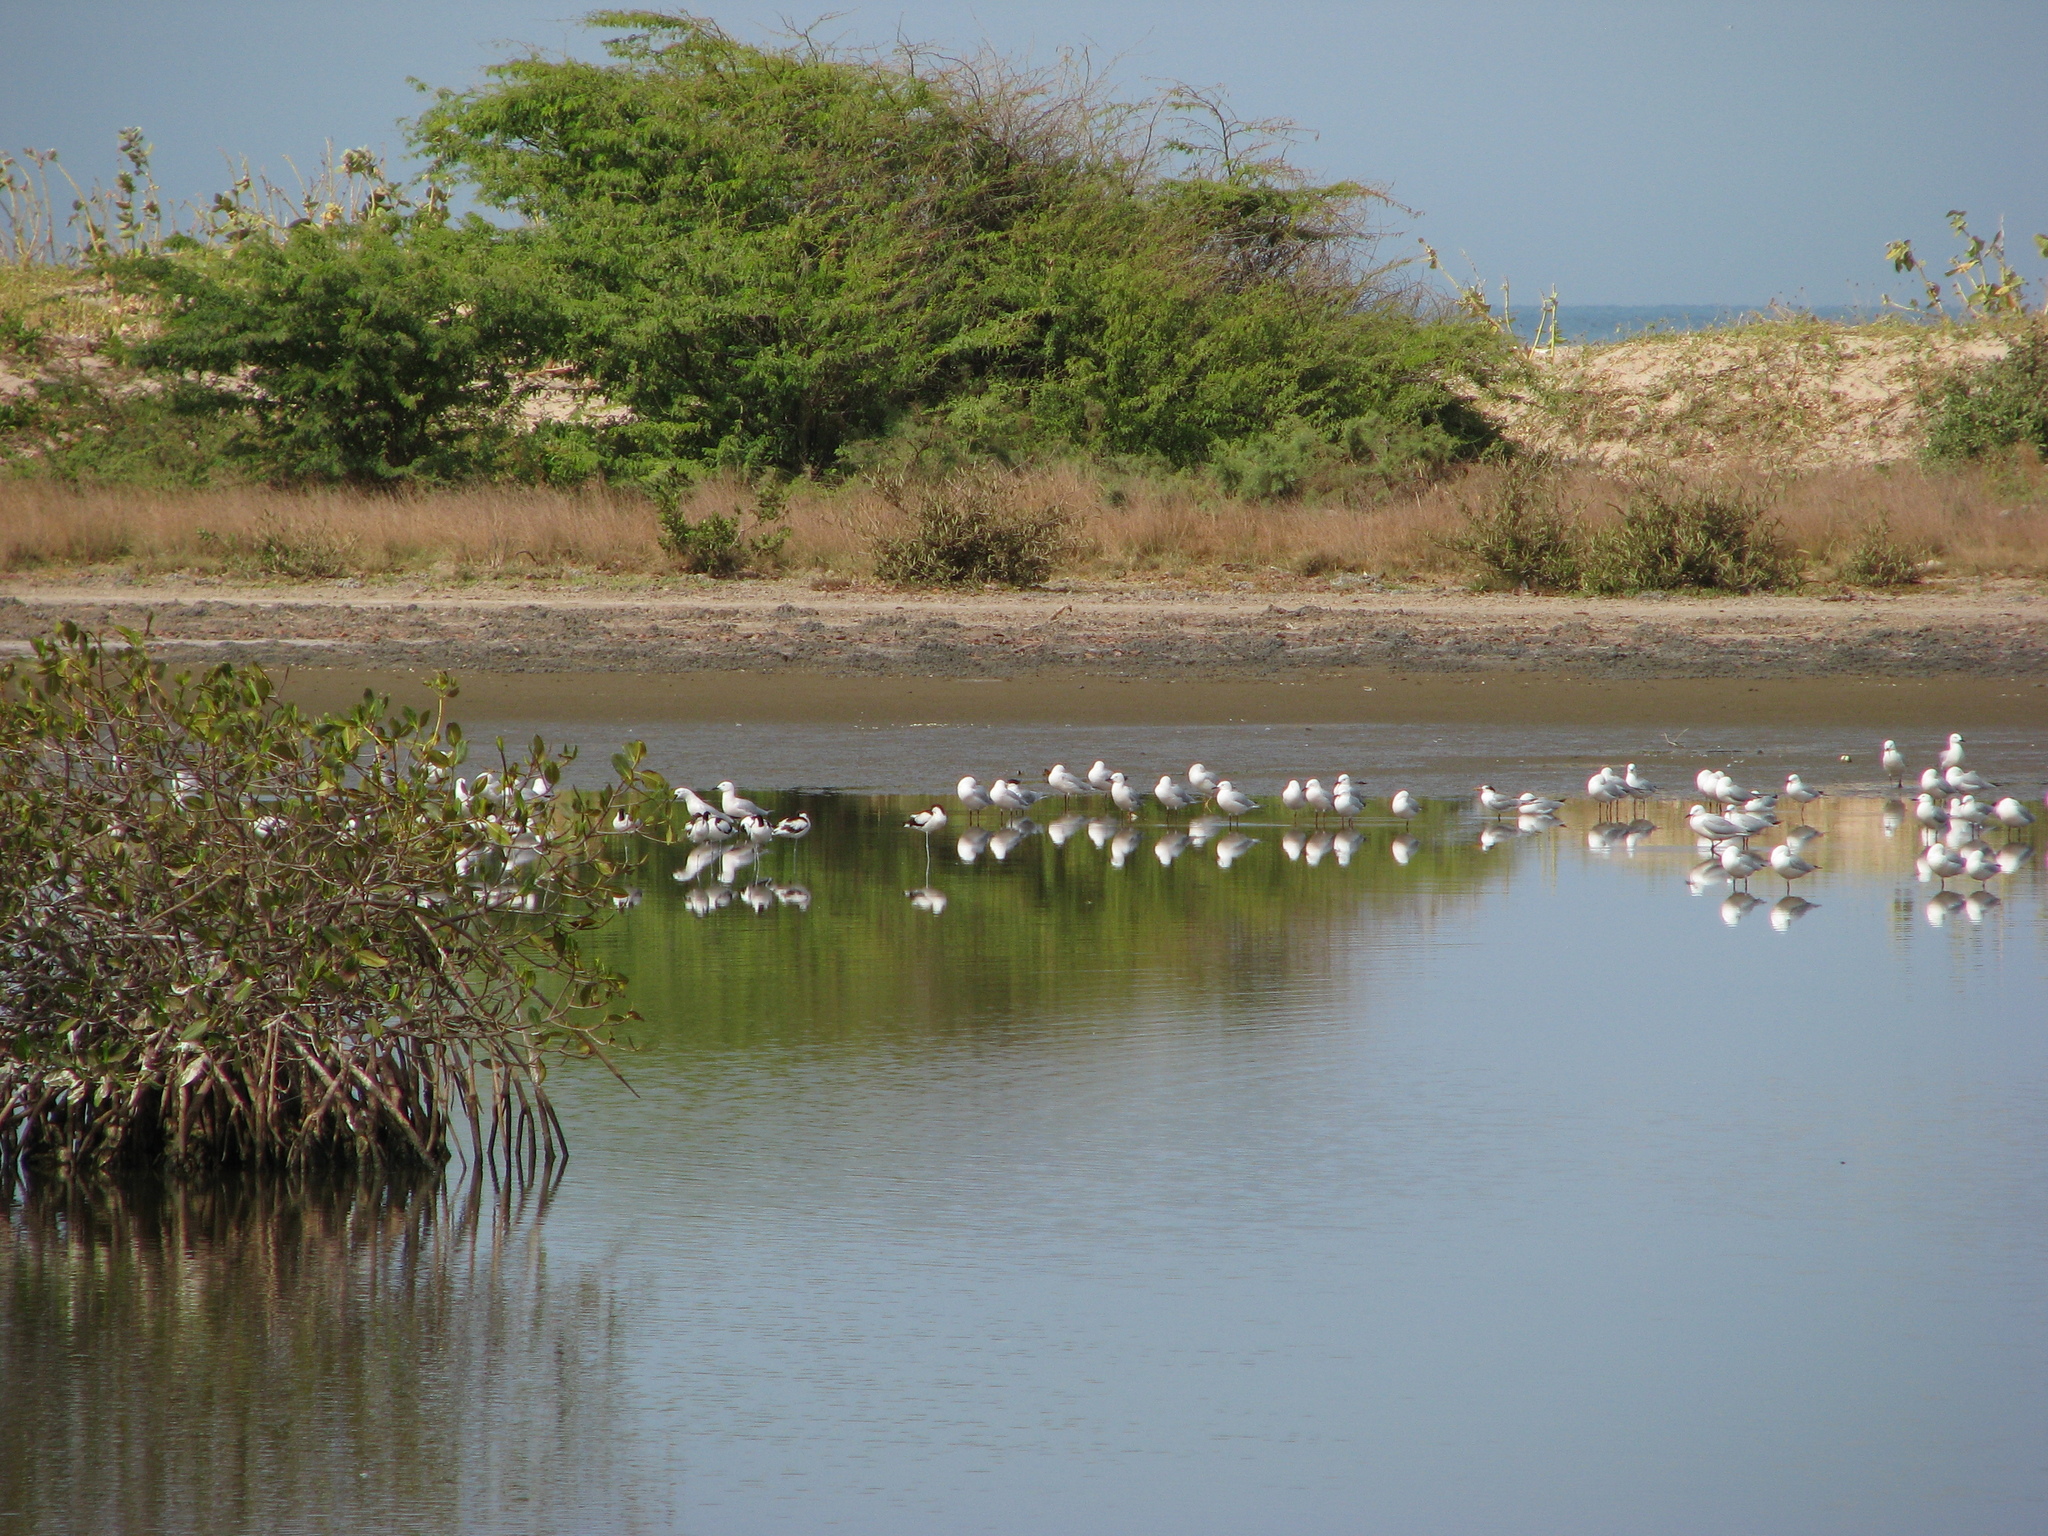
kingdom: Animalia
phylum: Chordata
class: Aves
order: Charadriiformes
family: Recurvirostridae
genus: Recurvirostra
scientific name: Recurvirostra avosetta
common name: Pied avocet
